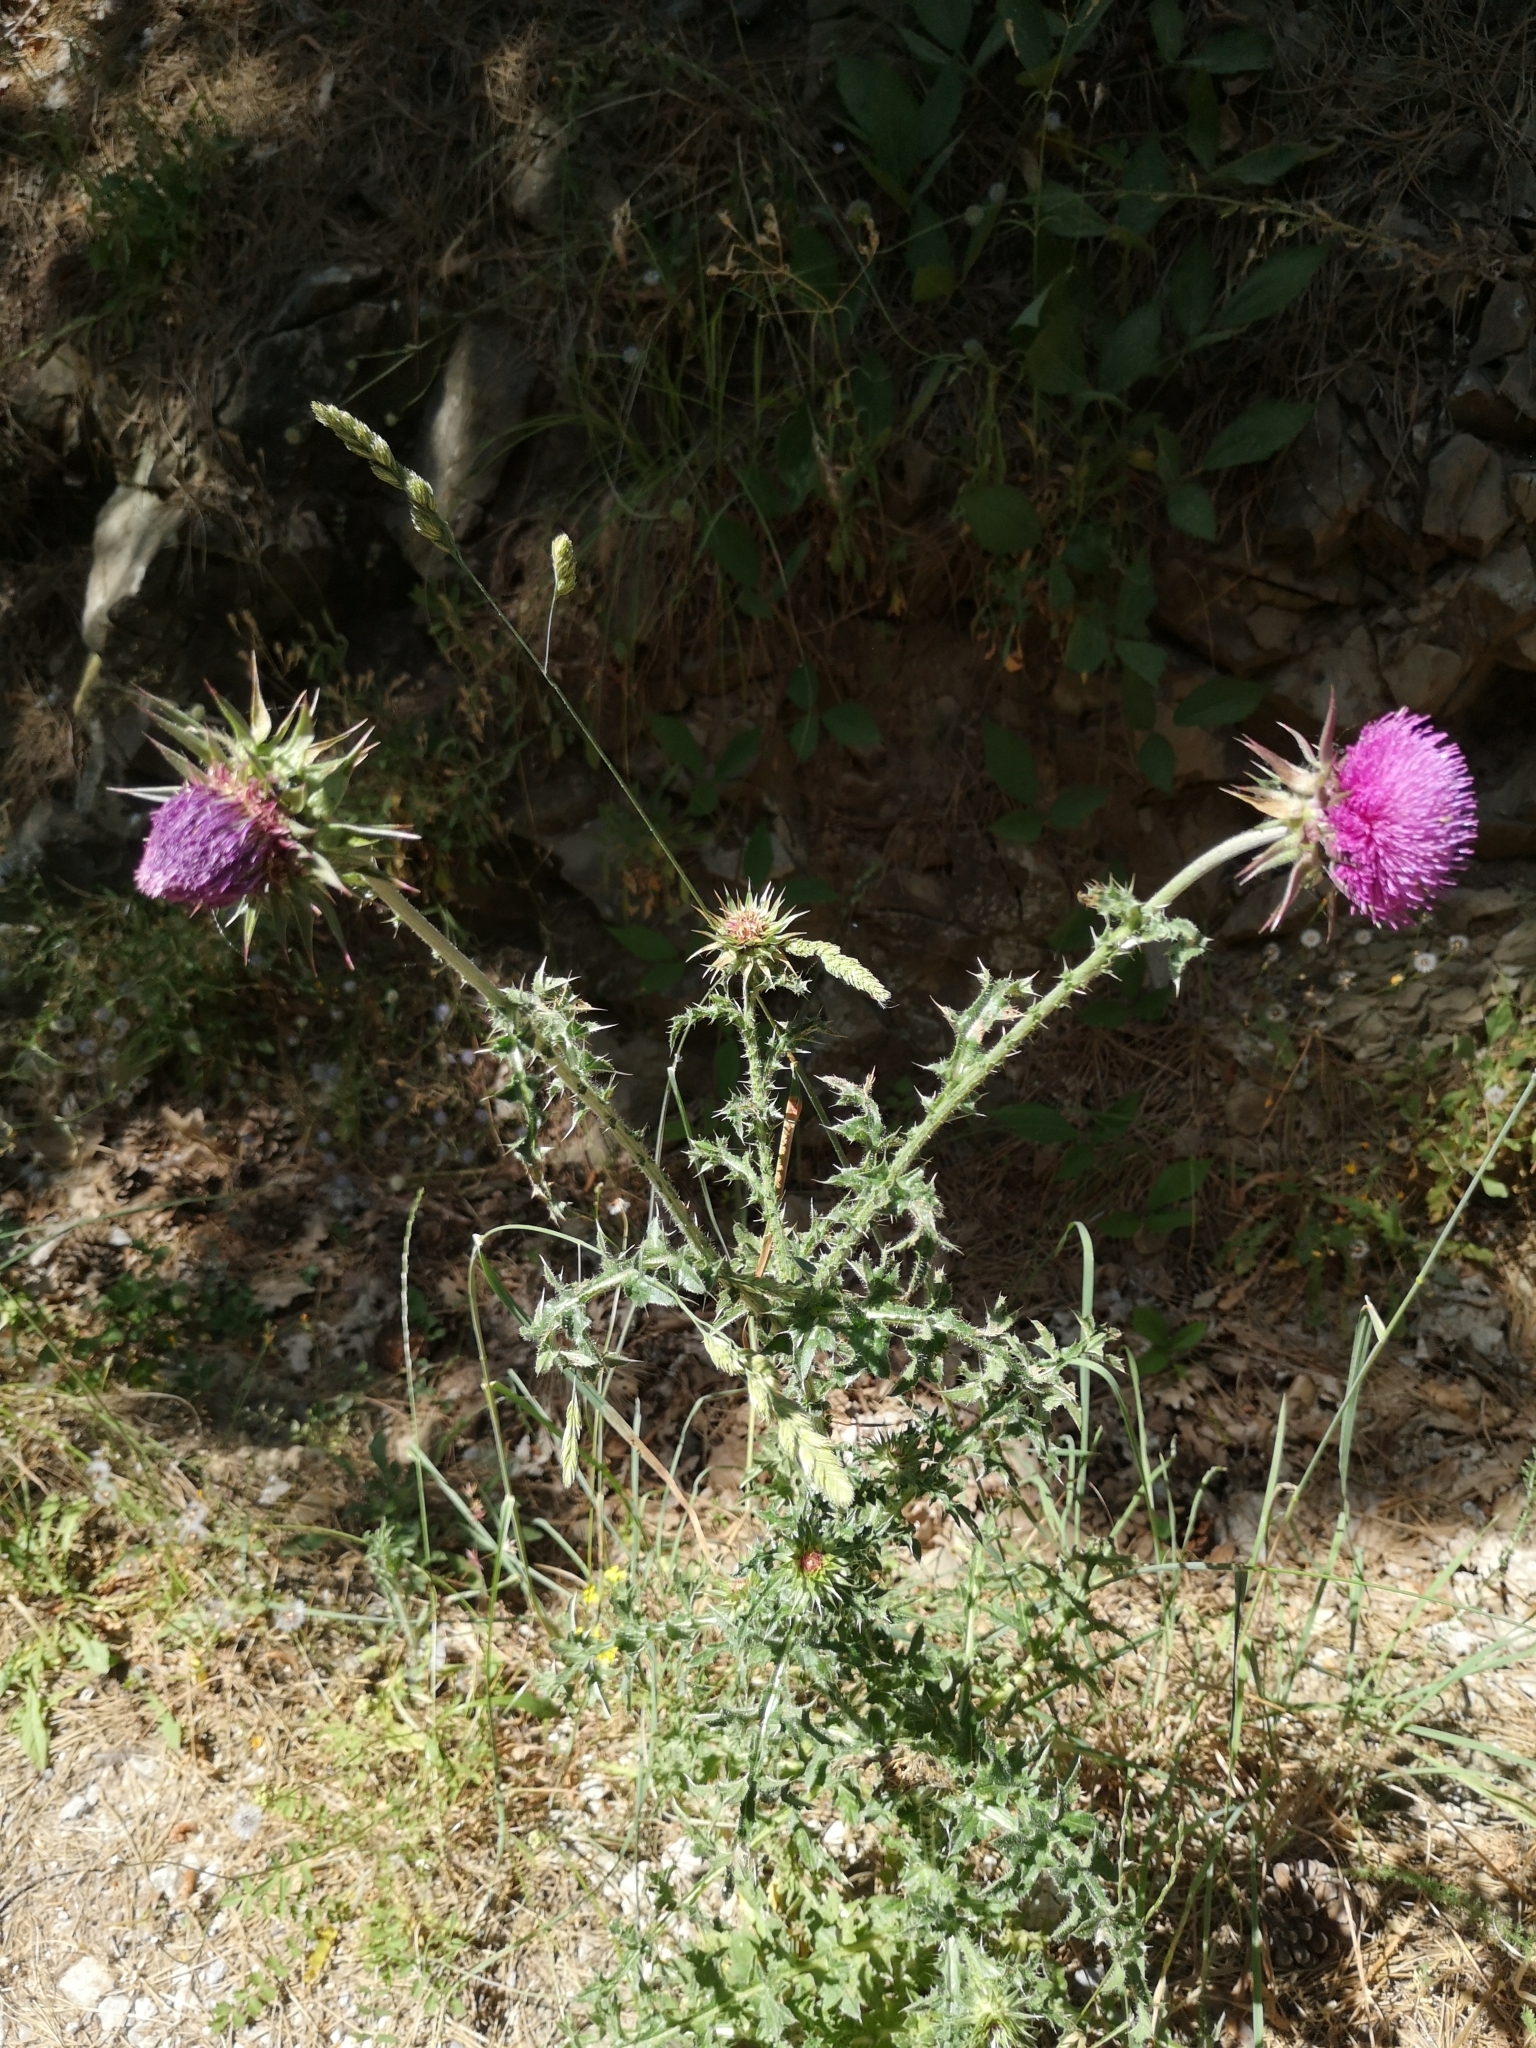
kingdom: Plantae
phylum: Tracheophyta
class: Magnoliopsida
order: Asterales
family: Asteraceae
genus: Carduus
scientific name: Carduus nutans
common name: Musk thistle
